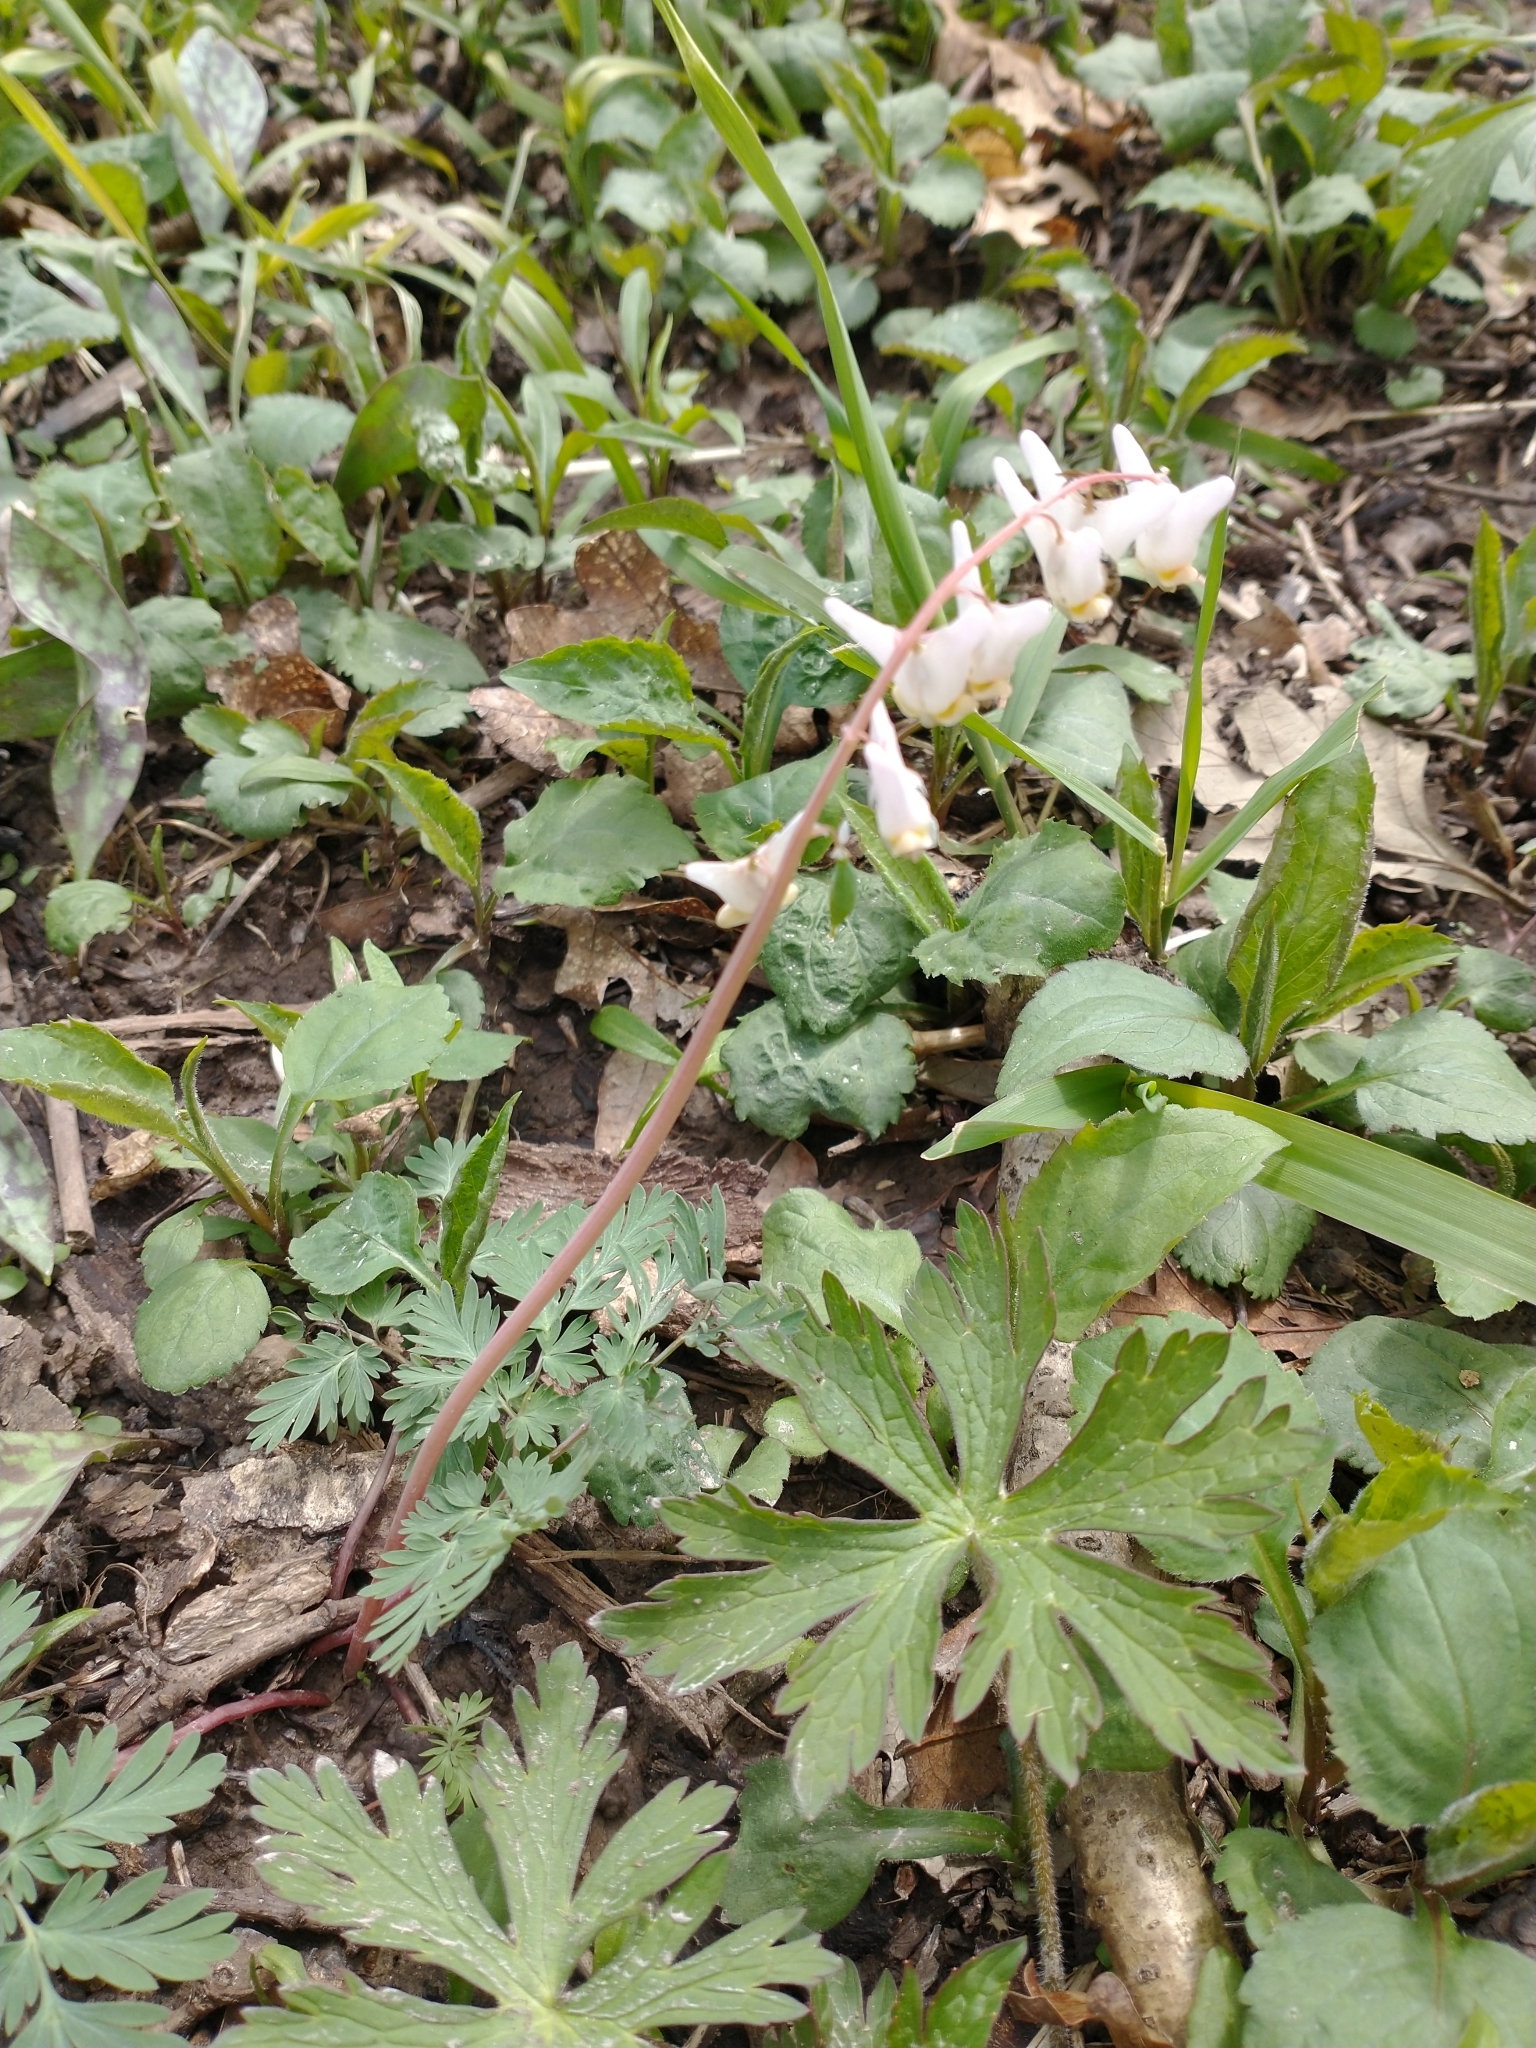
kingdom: Plantae
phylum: Tracheophyta
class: Magnoliopsida
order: Ranunculales
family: Papaveraceae
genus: Dicentra
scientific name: Dicentra cucullaria
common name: Dutchman's breeches
